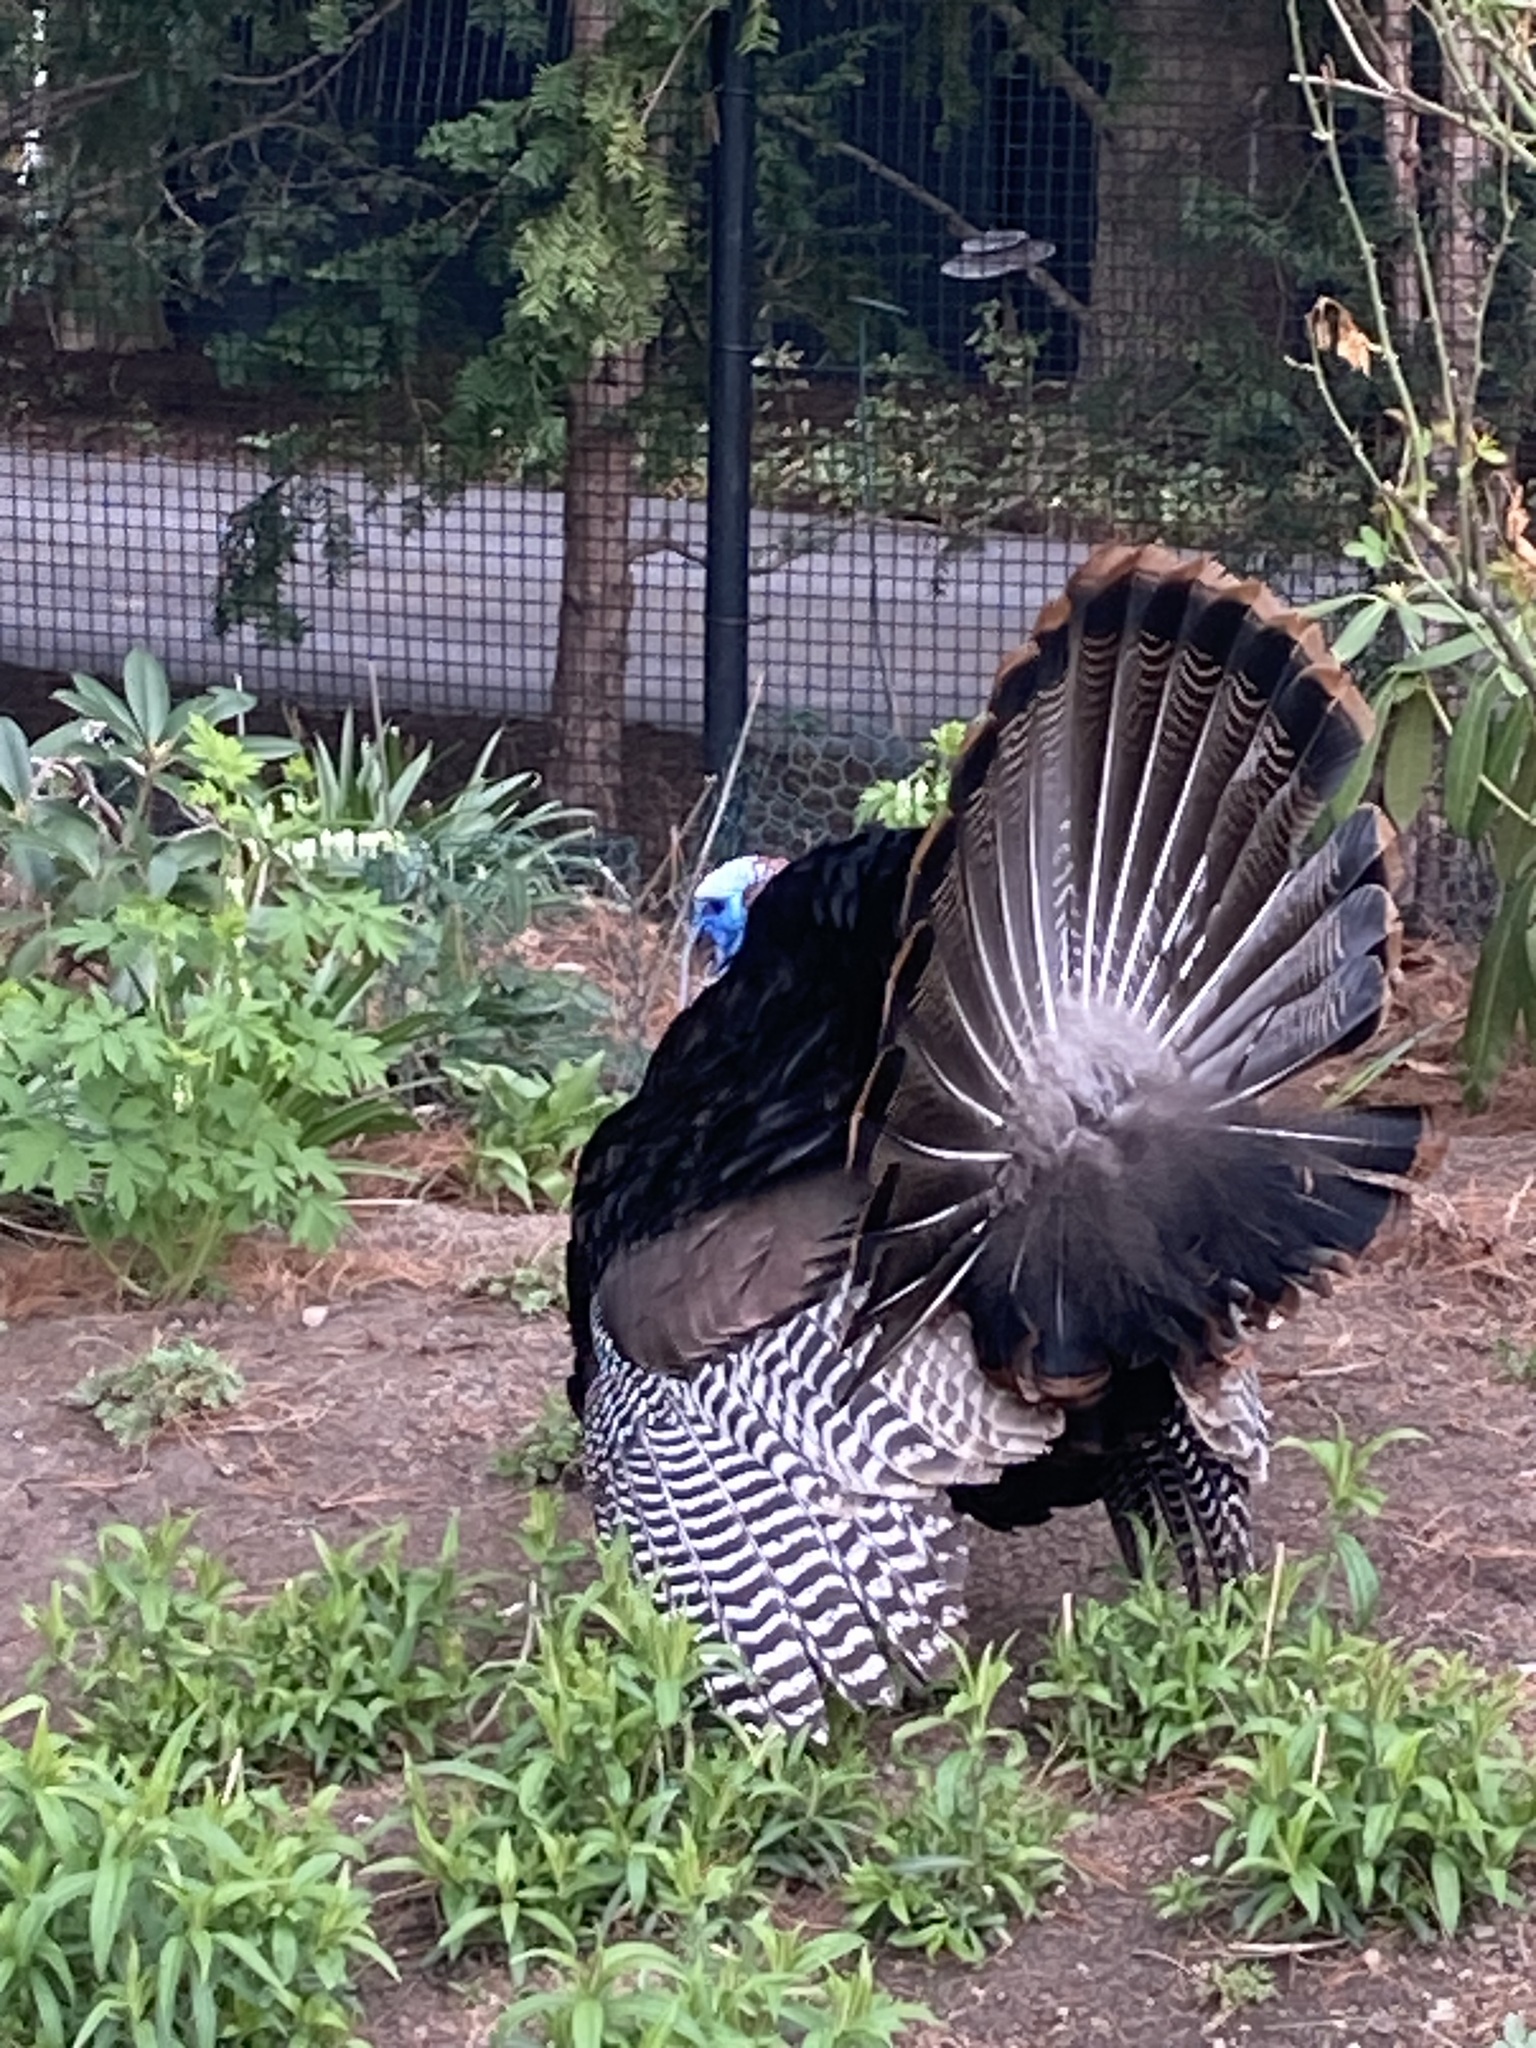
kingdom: Animalia
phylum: Chordata
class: Aves
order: Galliformes
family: Phasianidae
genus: Meleagris
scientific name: Meleagris gallopavo
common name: Wild turkey
